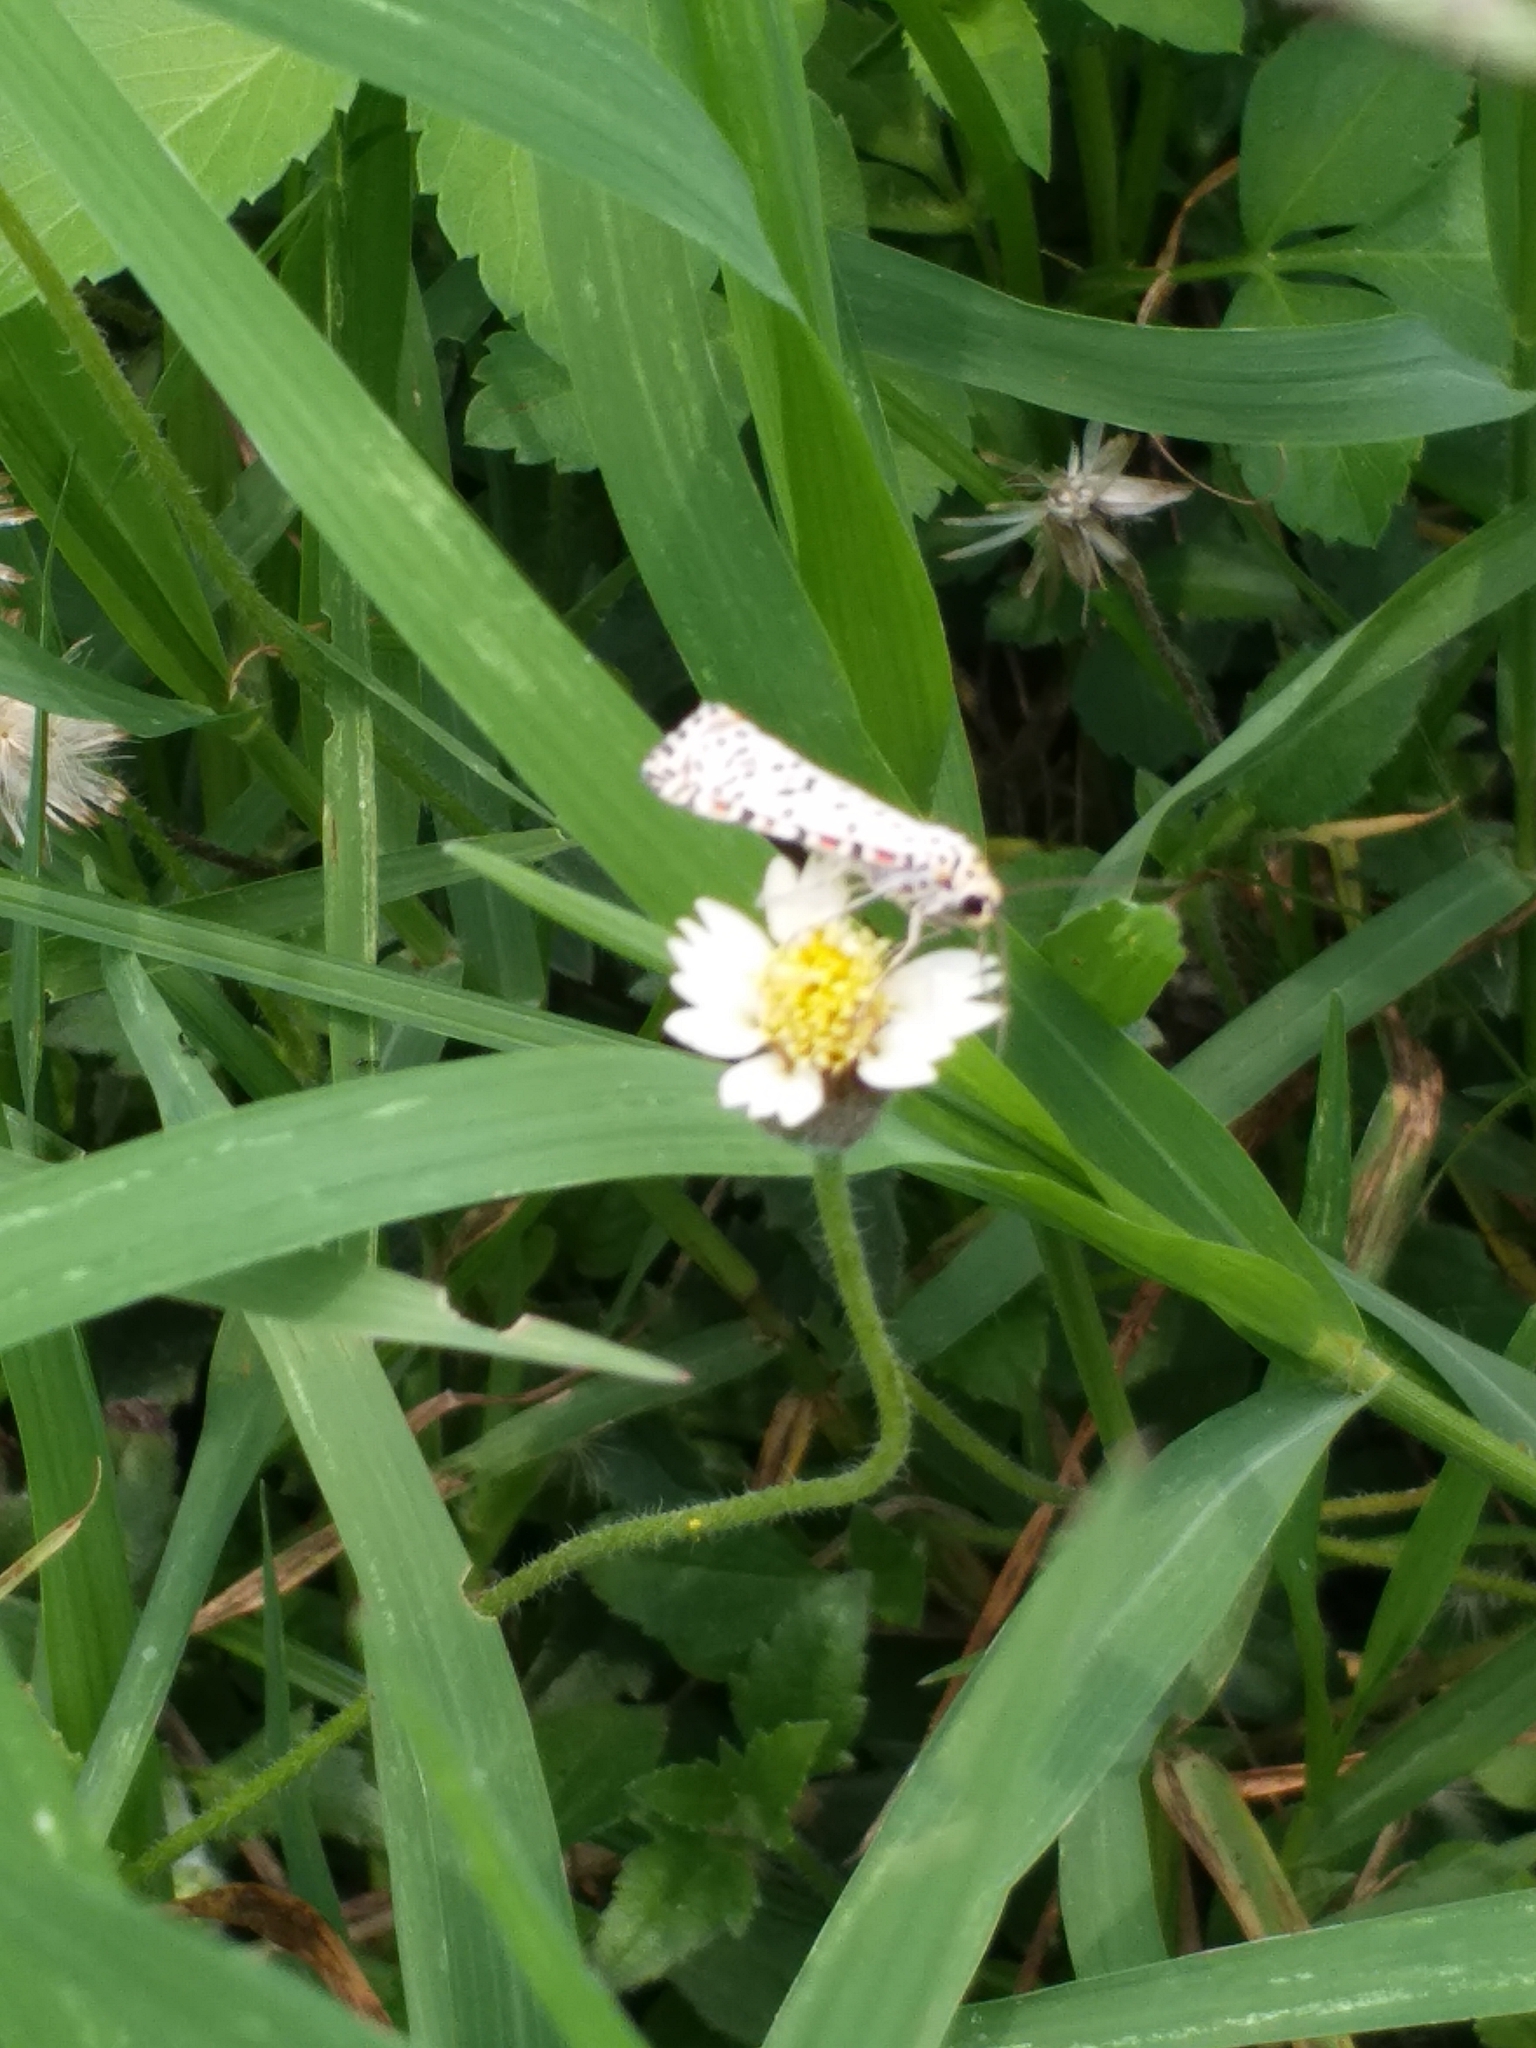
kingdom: Animalia
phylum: Arthropoda
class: Insecta
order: Lepidoptera
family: Erebidae
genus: Utetheisa
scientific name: Utetheisa pulchelloides
